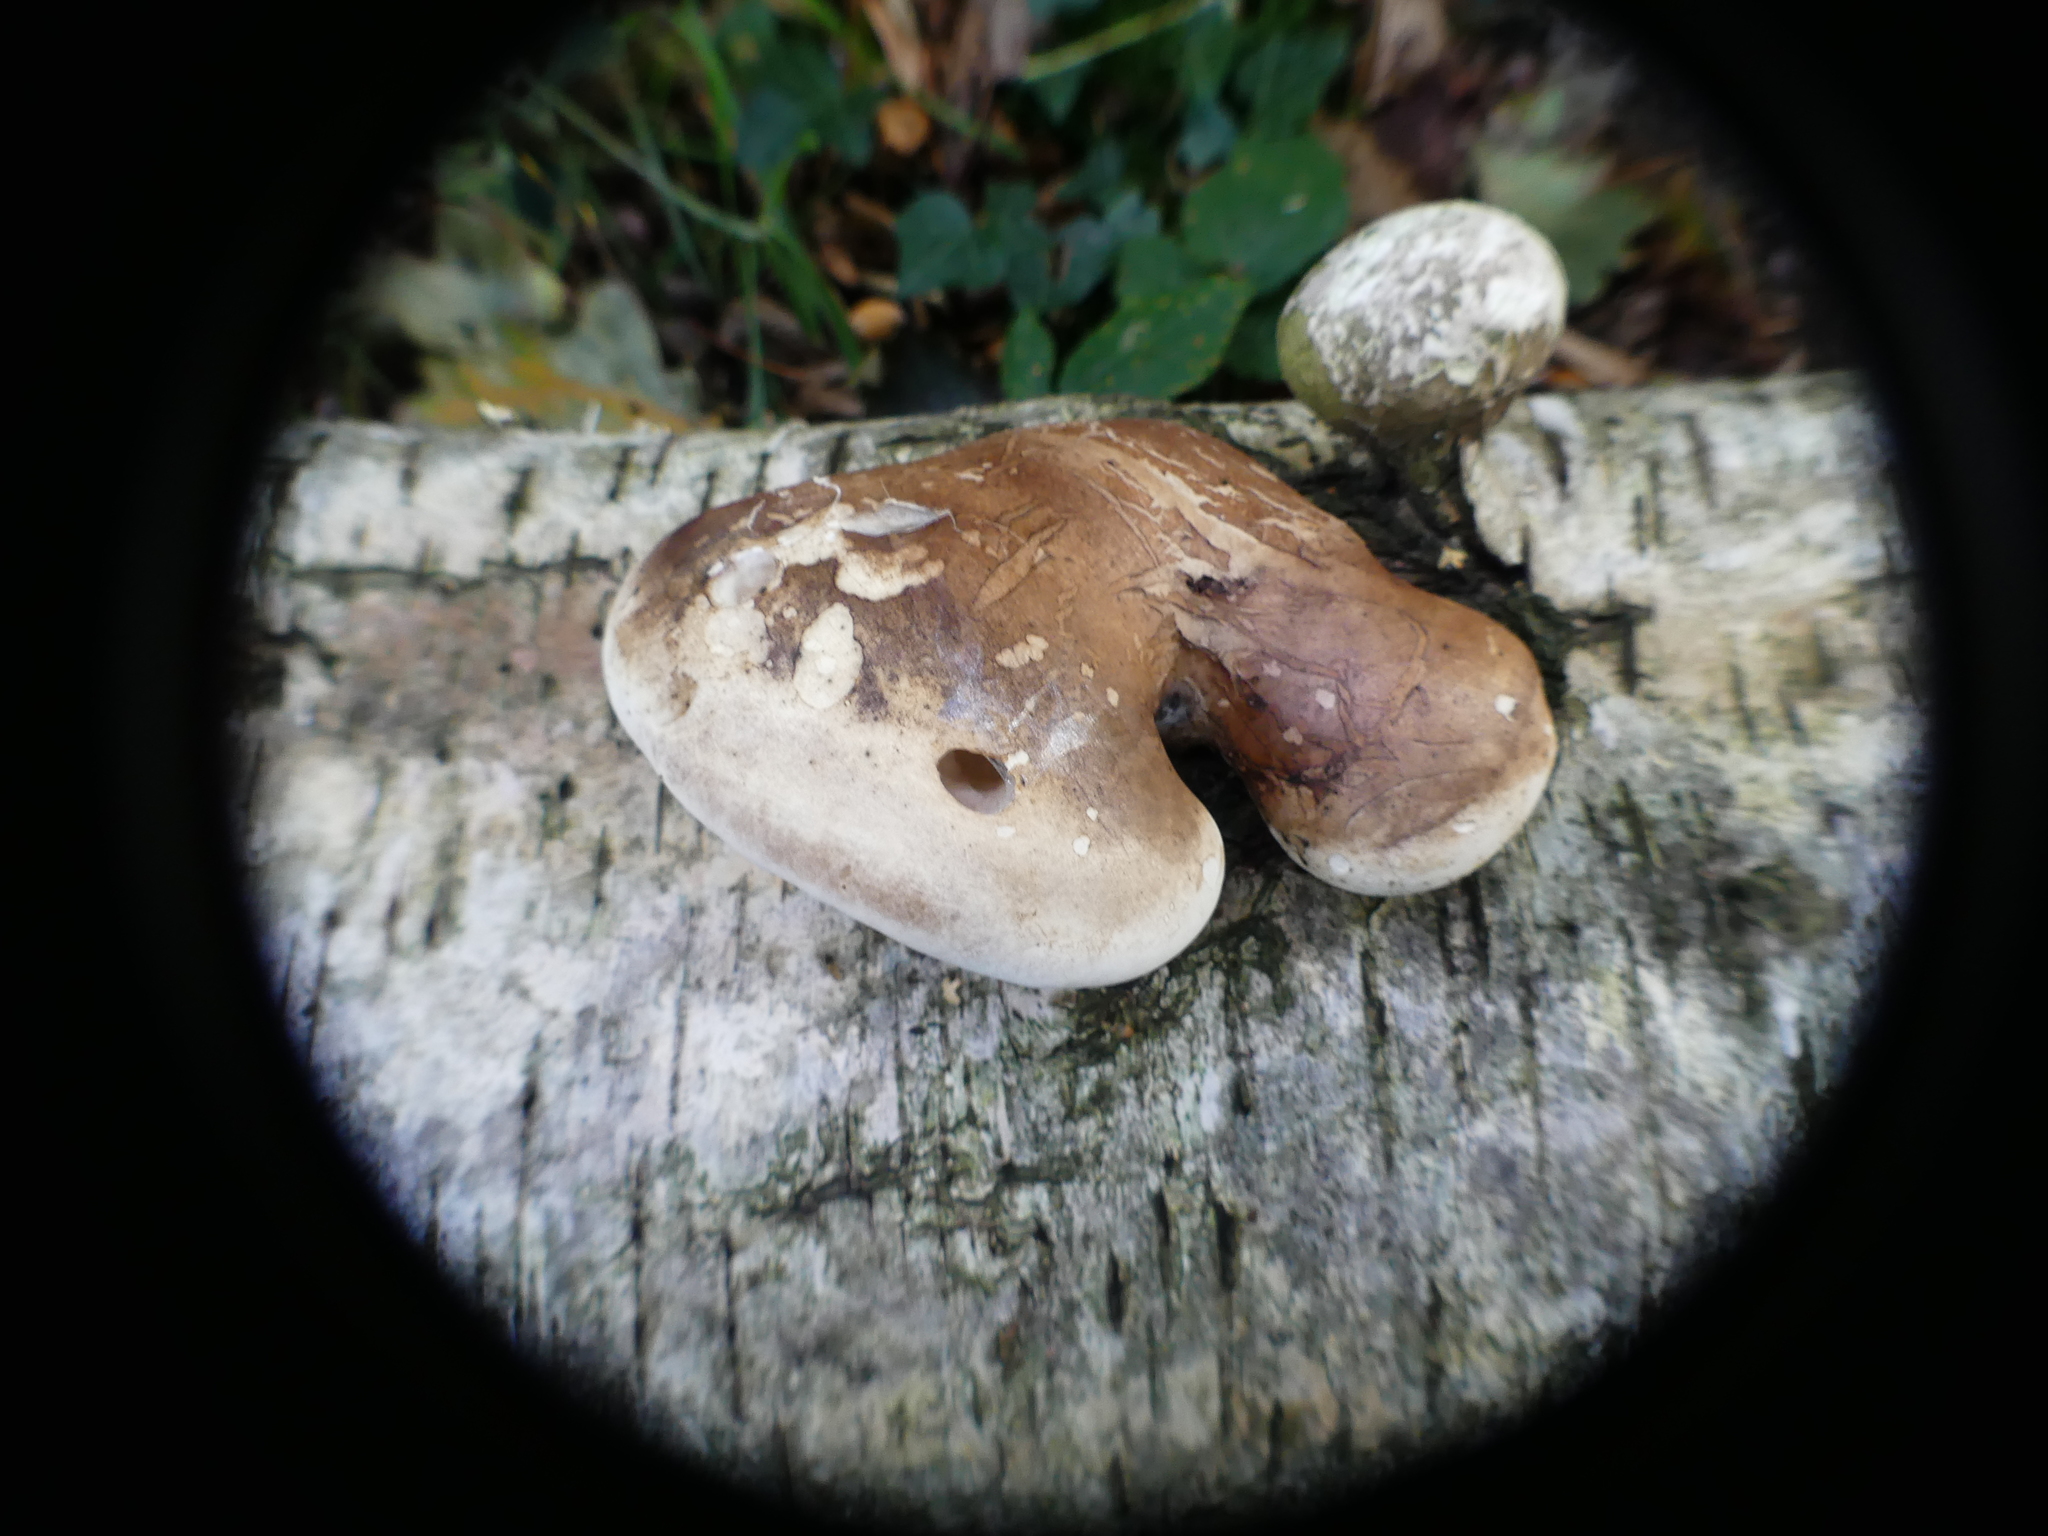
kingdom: Fungi
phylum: Basidiomycota
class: Agaricomycetes
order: Polyporales
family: Fomitopsidaceae
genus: Fomitopsis
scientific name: Fomitopsis betulina
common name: Birch polypore
